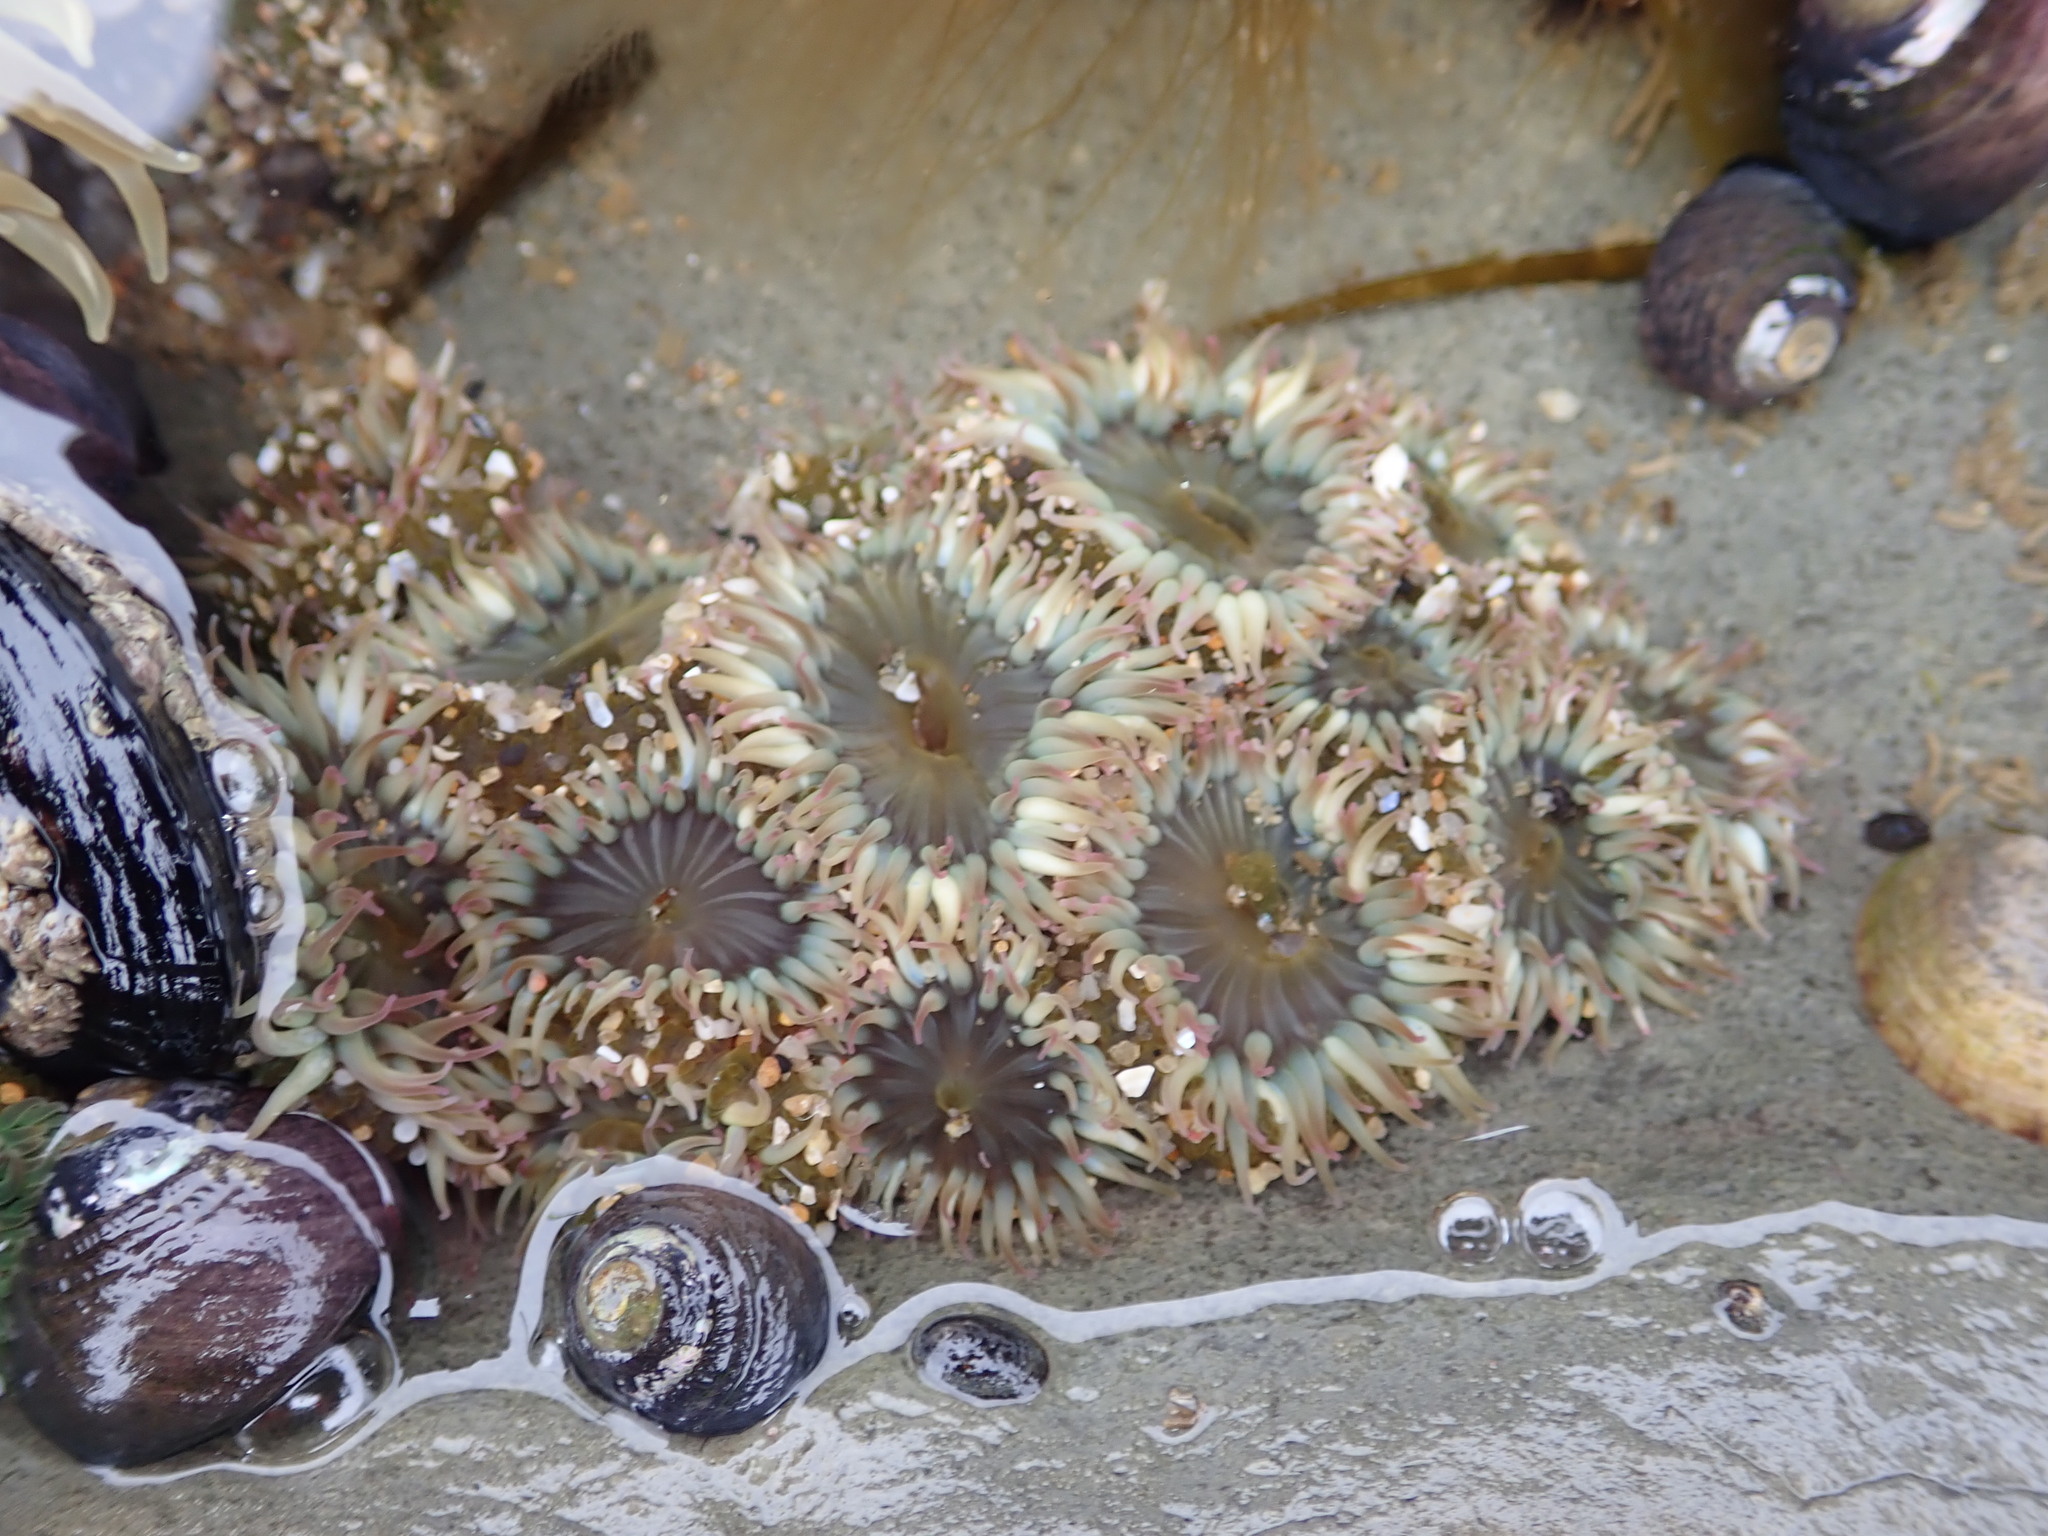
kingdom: Animalia
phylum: Cnidaria
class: Anthozoa
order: Actiniaria
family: Actiniidae
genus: Anthopleura
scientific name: Anthopleura elegantissima
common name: Clonal anemone
